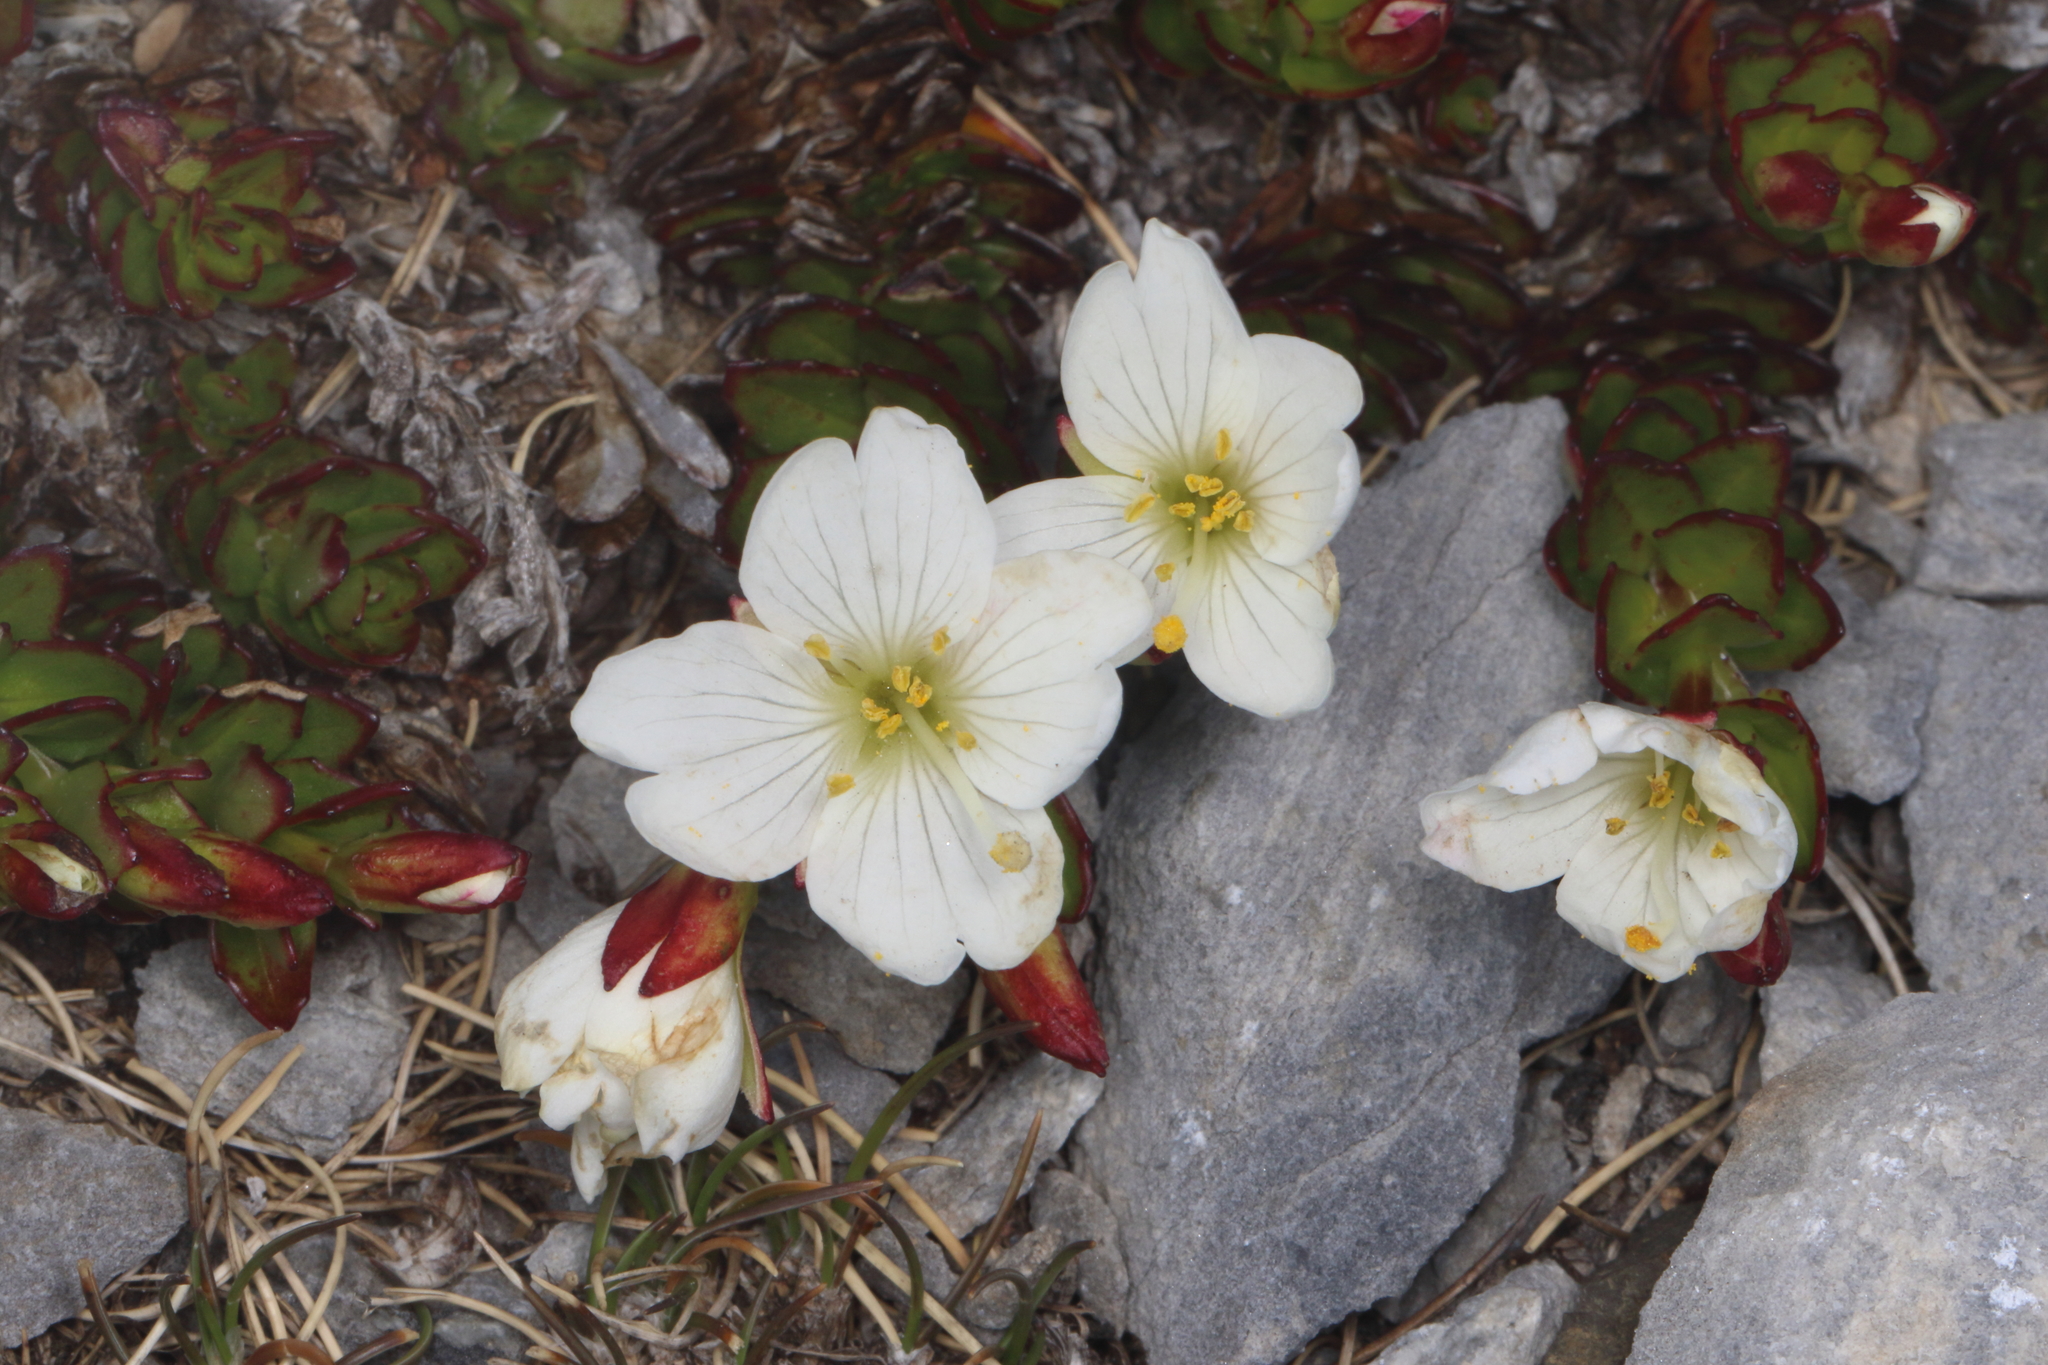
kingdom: Plantae
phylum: Tracheophyta
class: Magnoliopsida
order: Myrtales
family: Onagraceae
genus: Epilobium
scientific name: Epilobium glabellum
